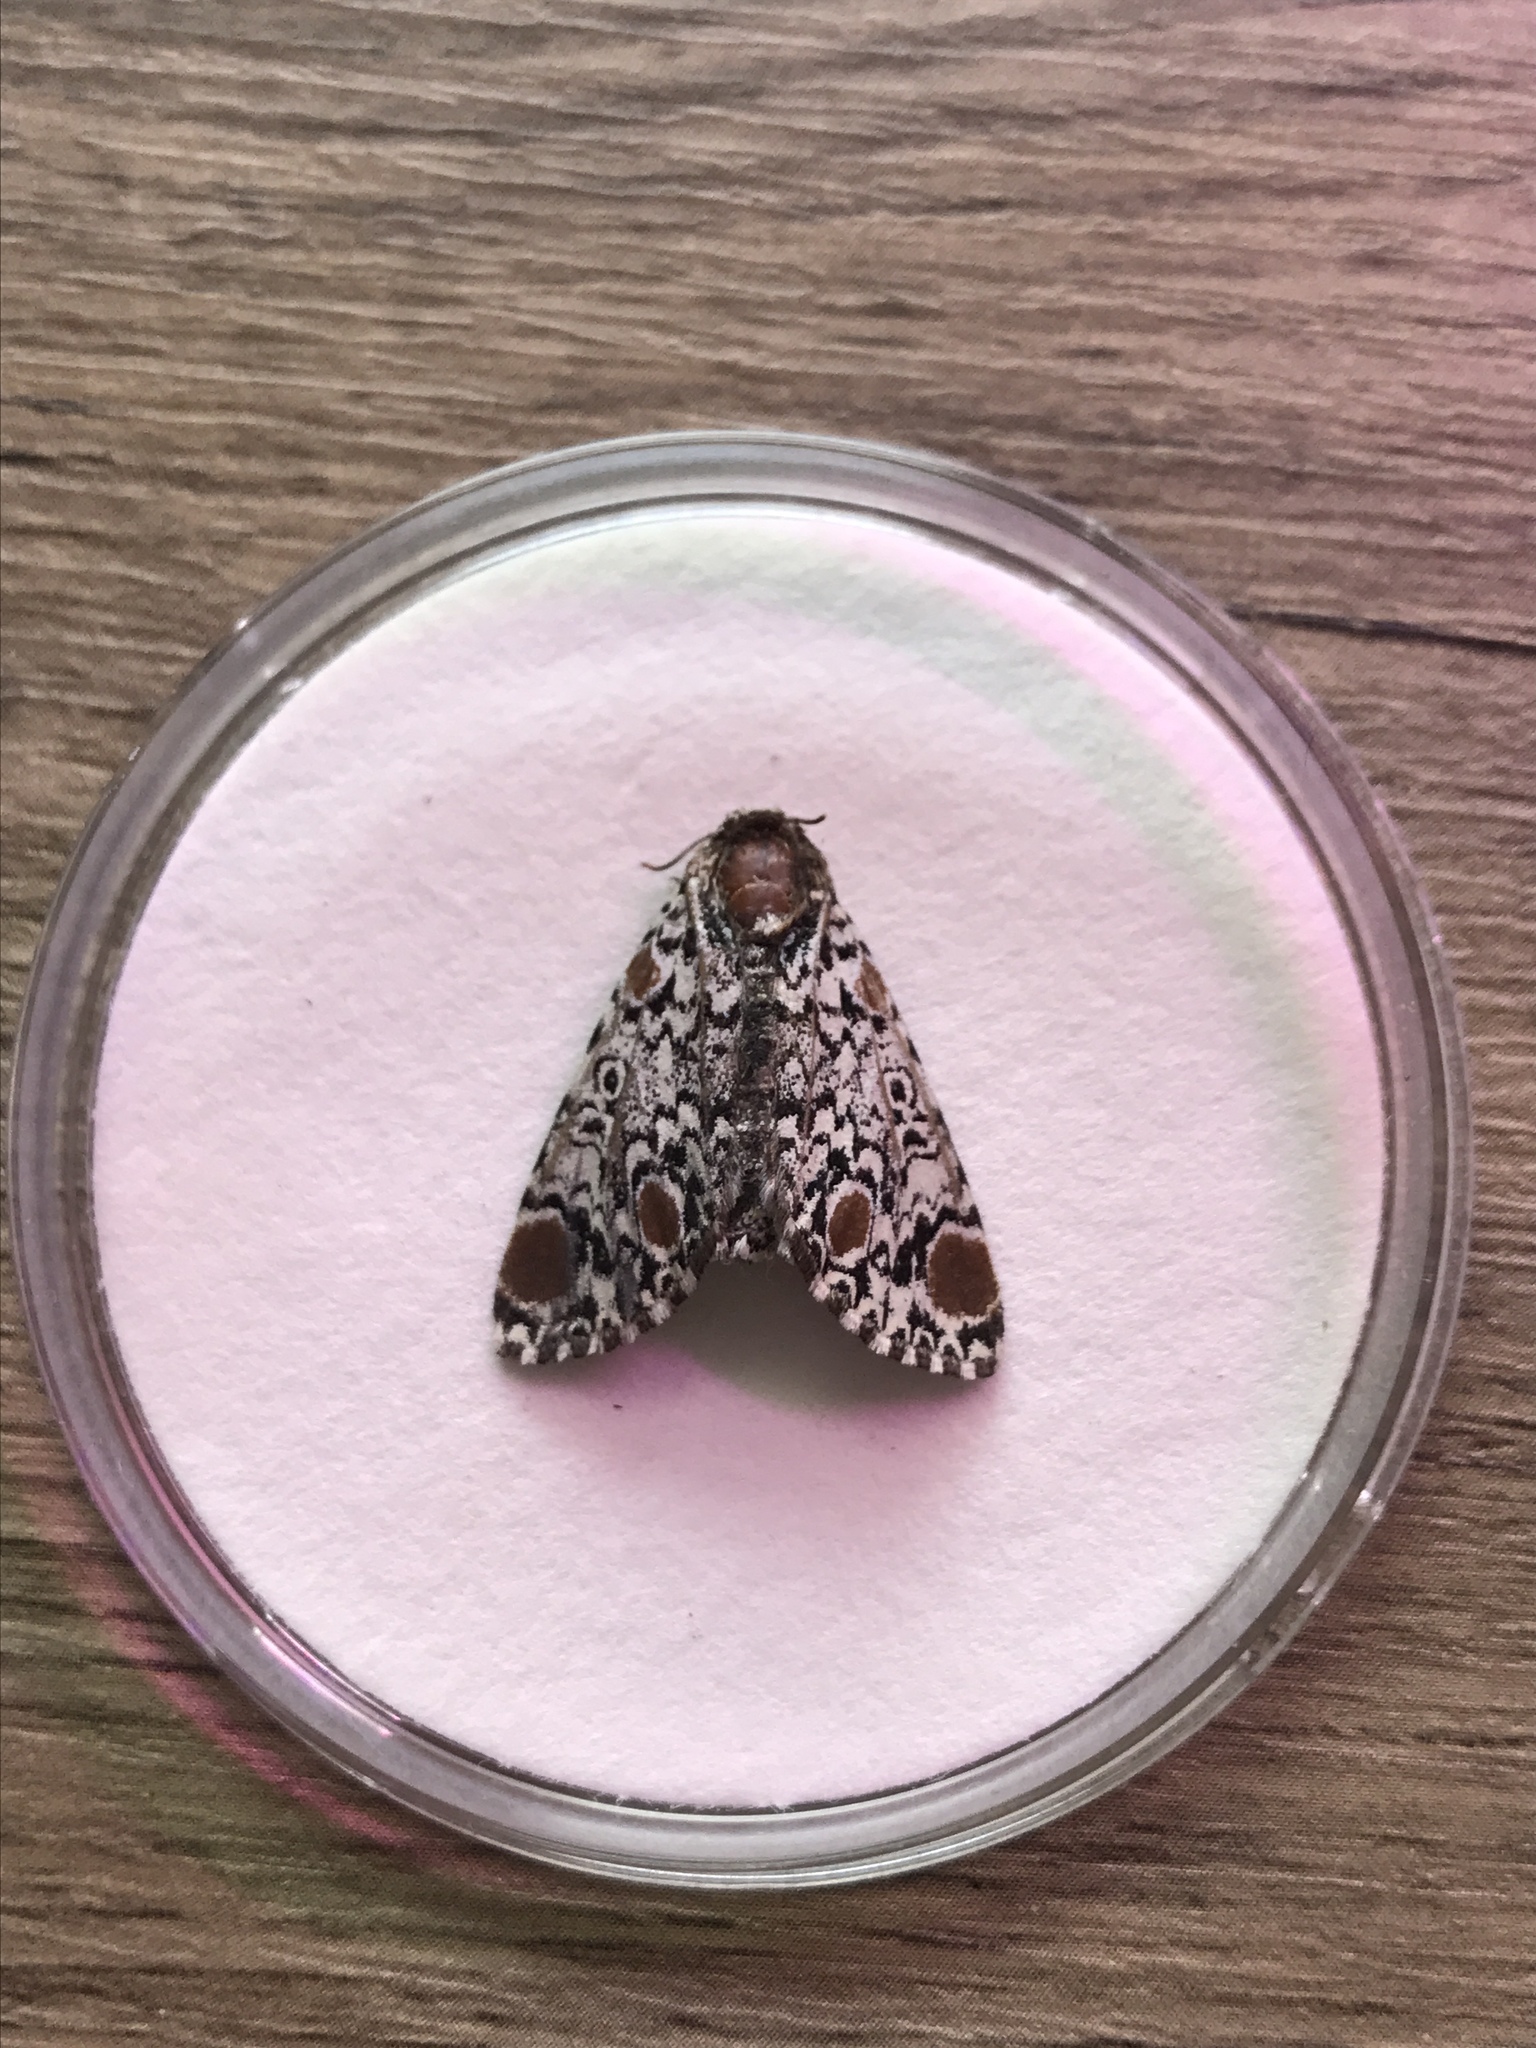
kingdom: Animalia
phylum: Arthropoda
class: Insecta
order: Lepidoptera
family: Noctuidae
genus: Harrisimemna
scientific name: Harrisimemna trisignata
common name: Harris threespot
